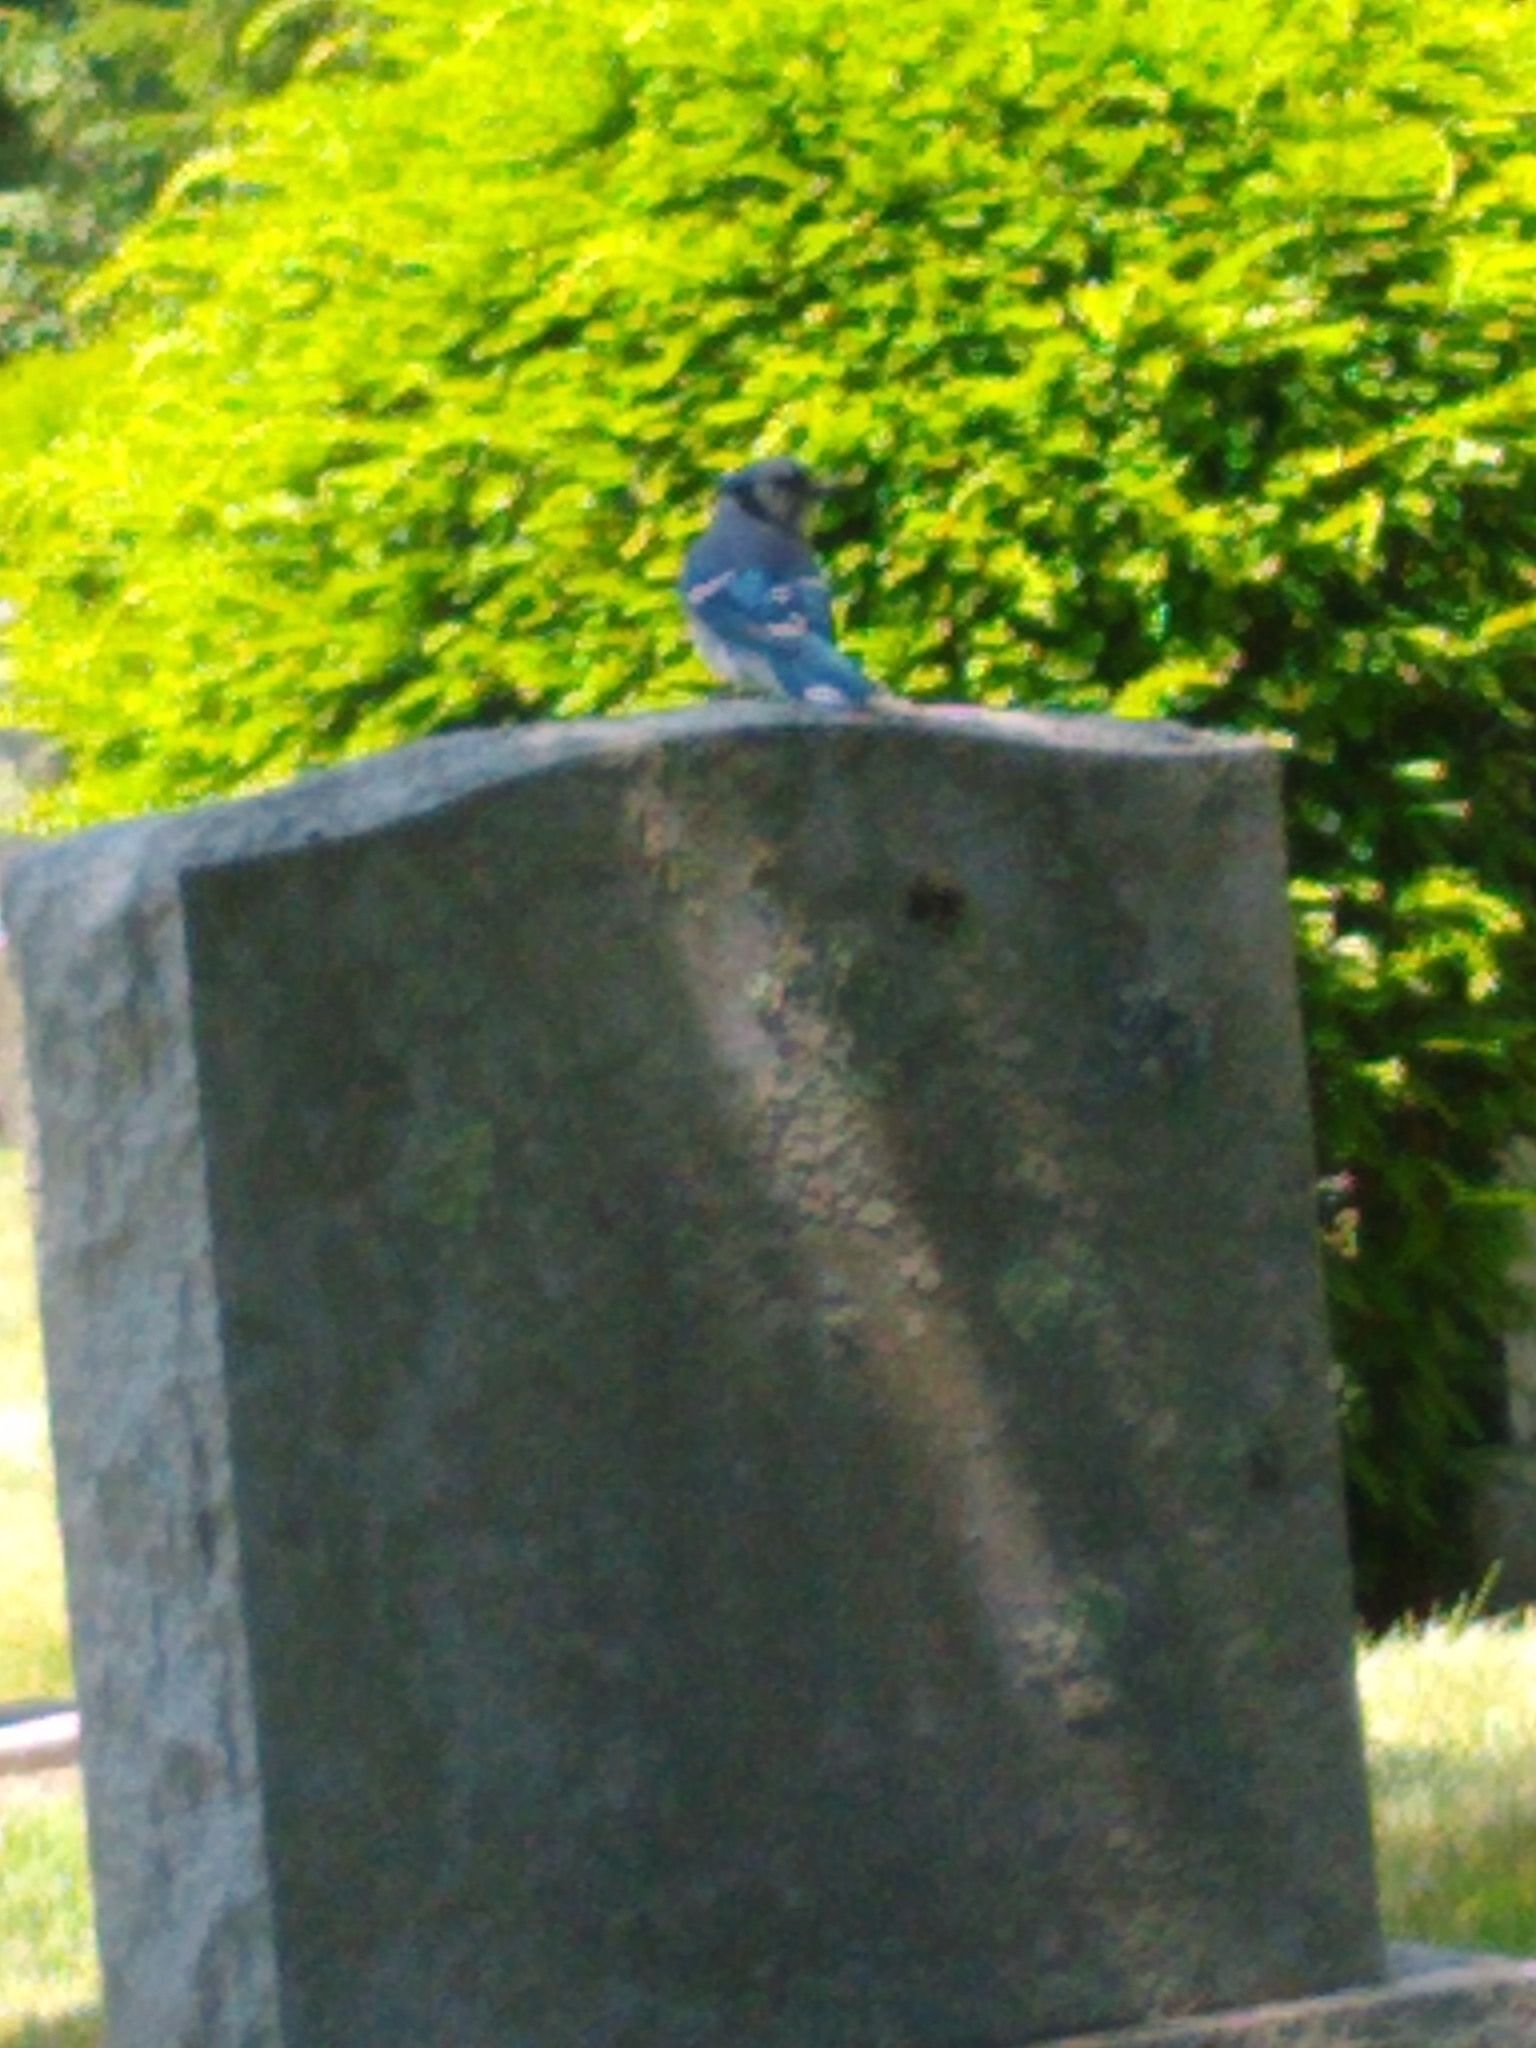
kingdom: Animalia
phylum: Chordata
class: Aves
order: Passeriformes
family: Corvidae
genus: Cyanocitta
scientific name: Cyanocitta cristata
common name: Blue jay
